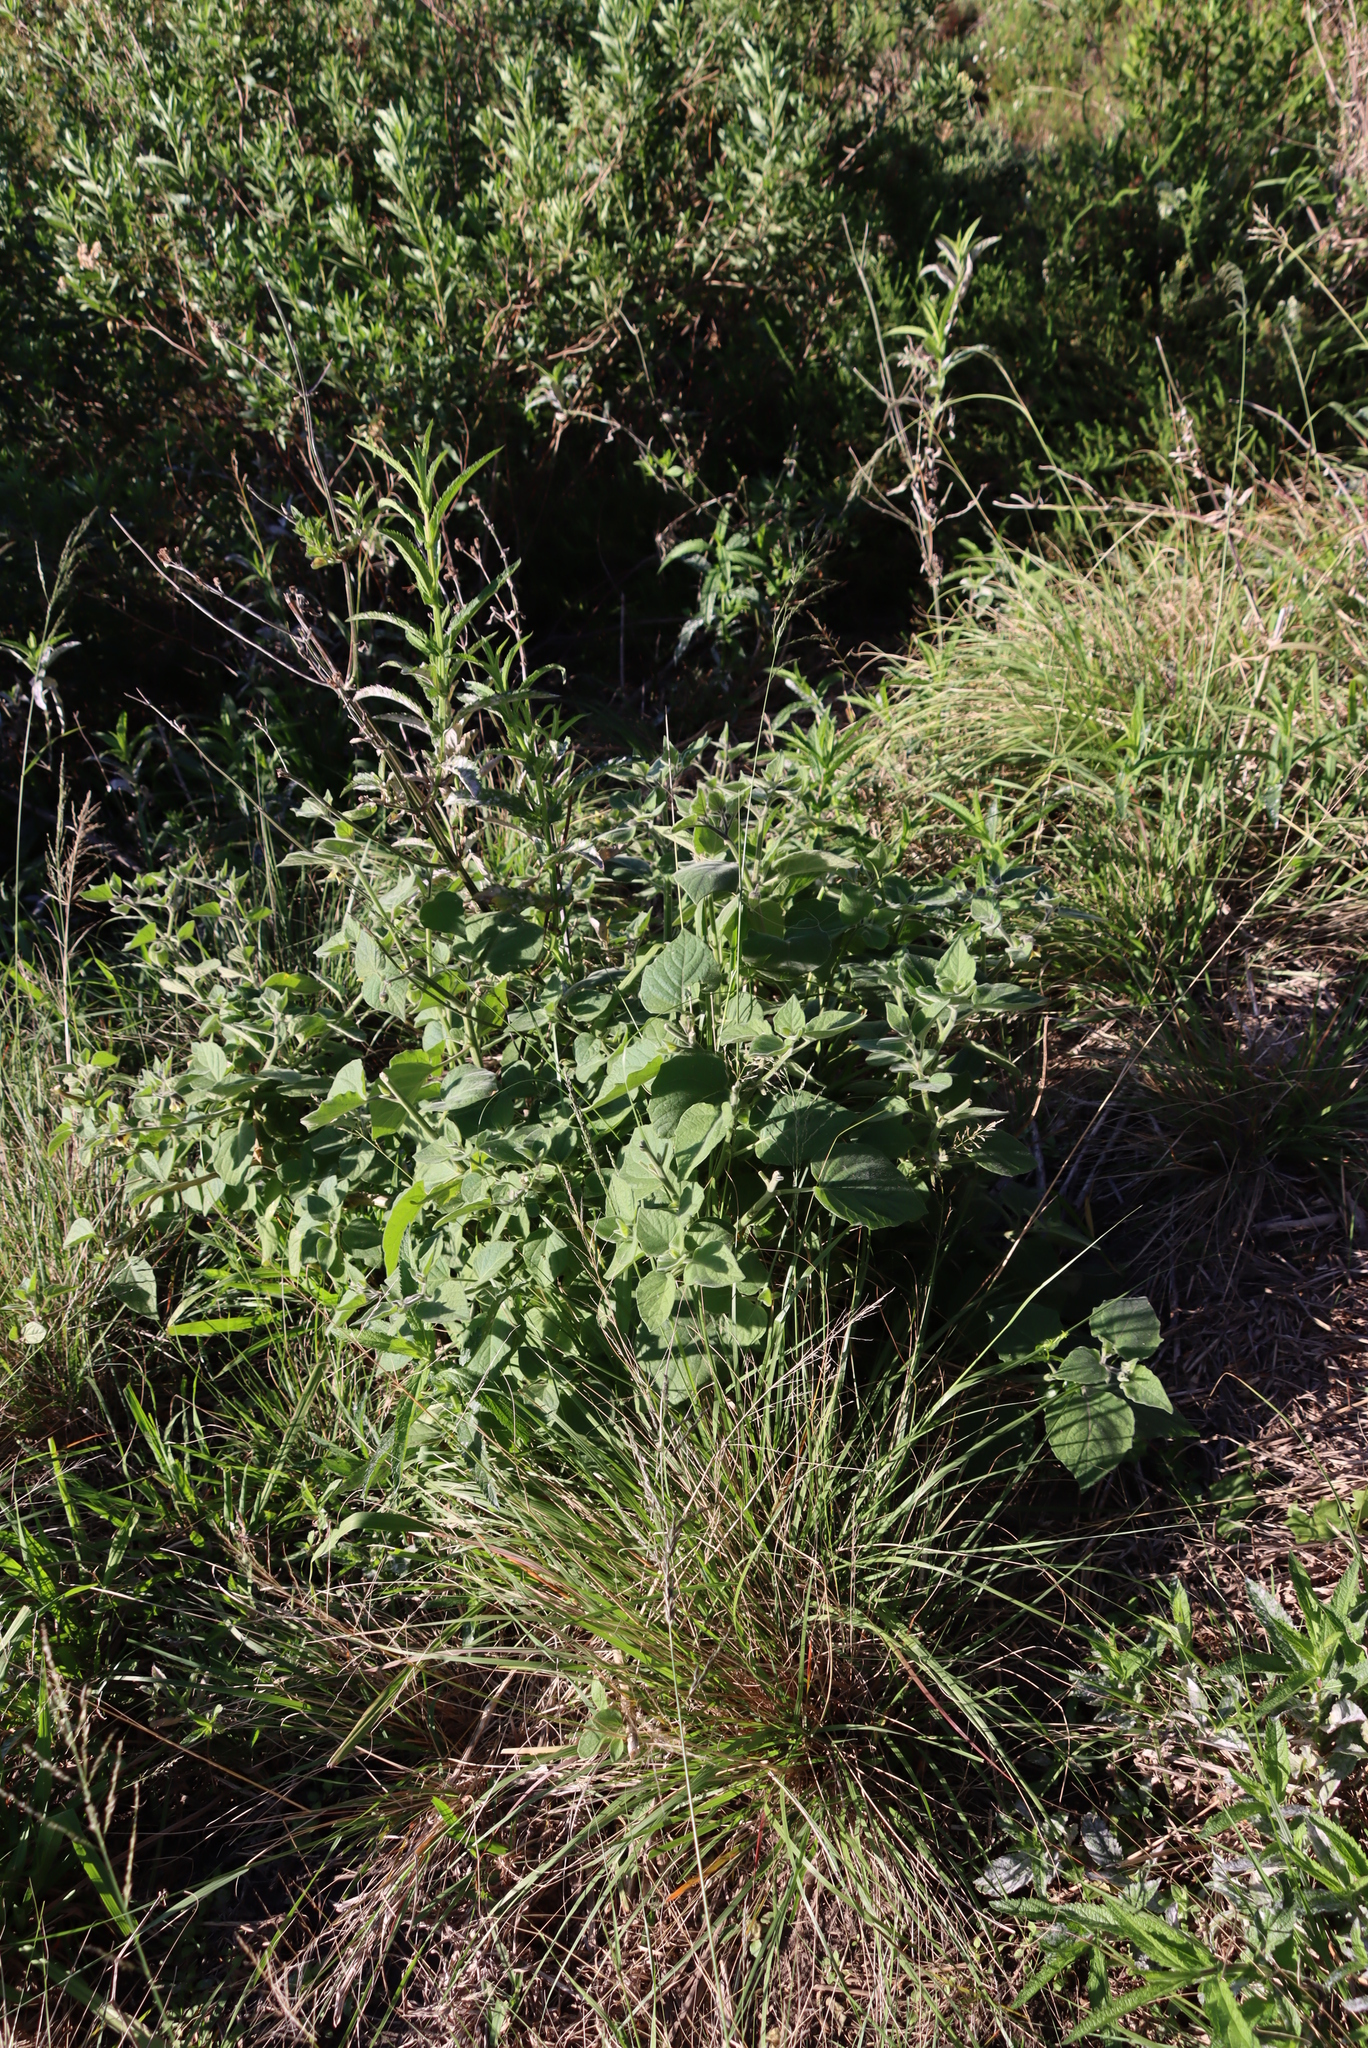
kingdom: Plantae
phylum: Tracheophyta
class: Magnoliopsida
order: Solanales
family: Solanaceae
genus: Physalis
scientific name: Physalis peruviana
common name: Cape-gooseberry
